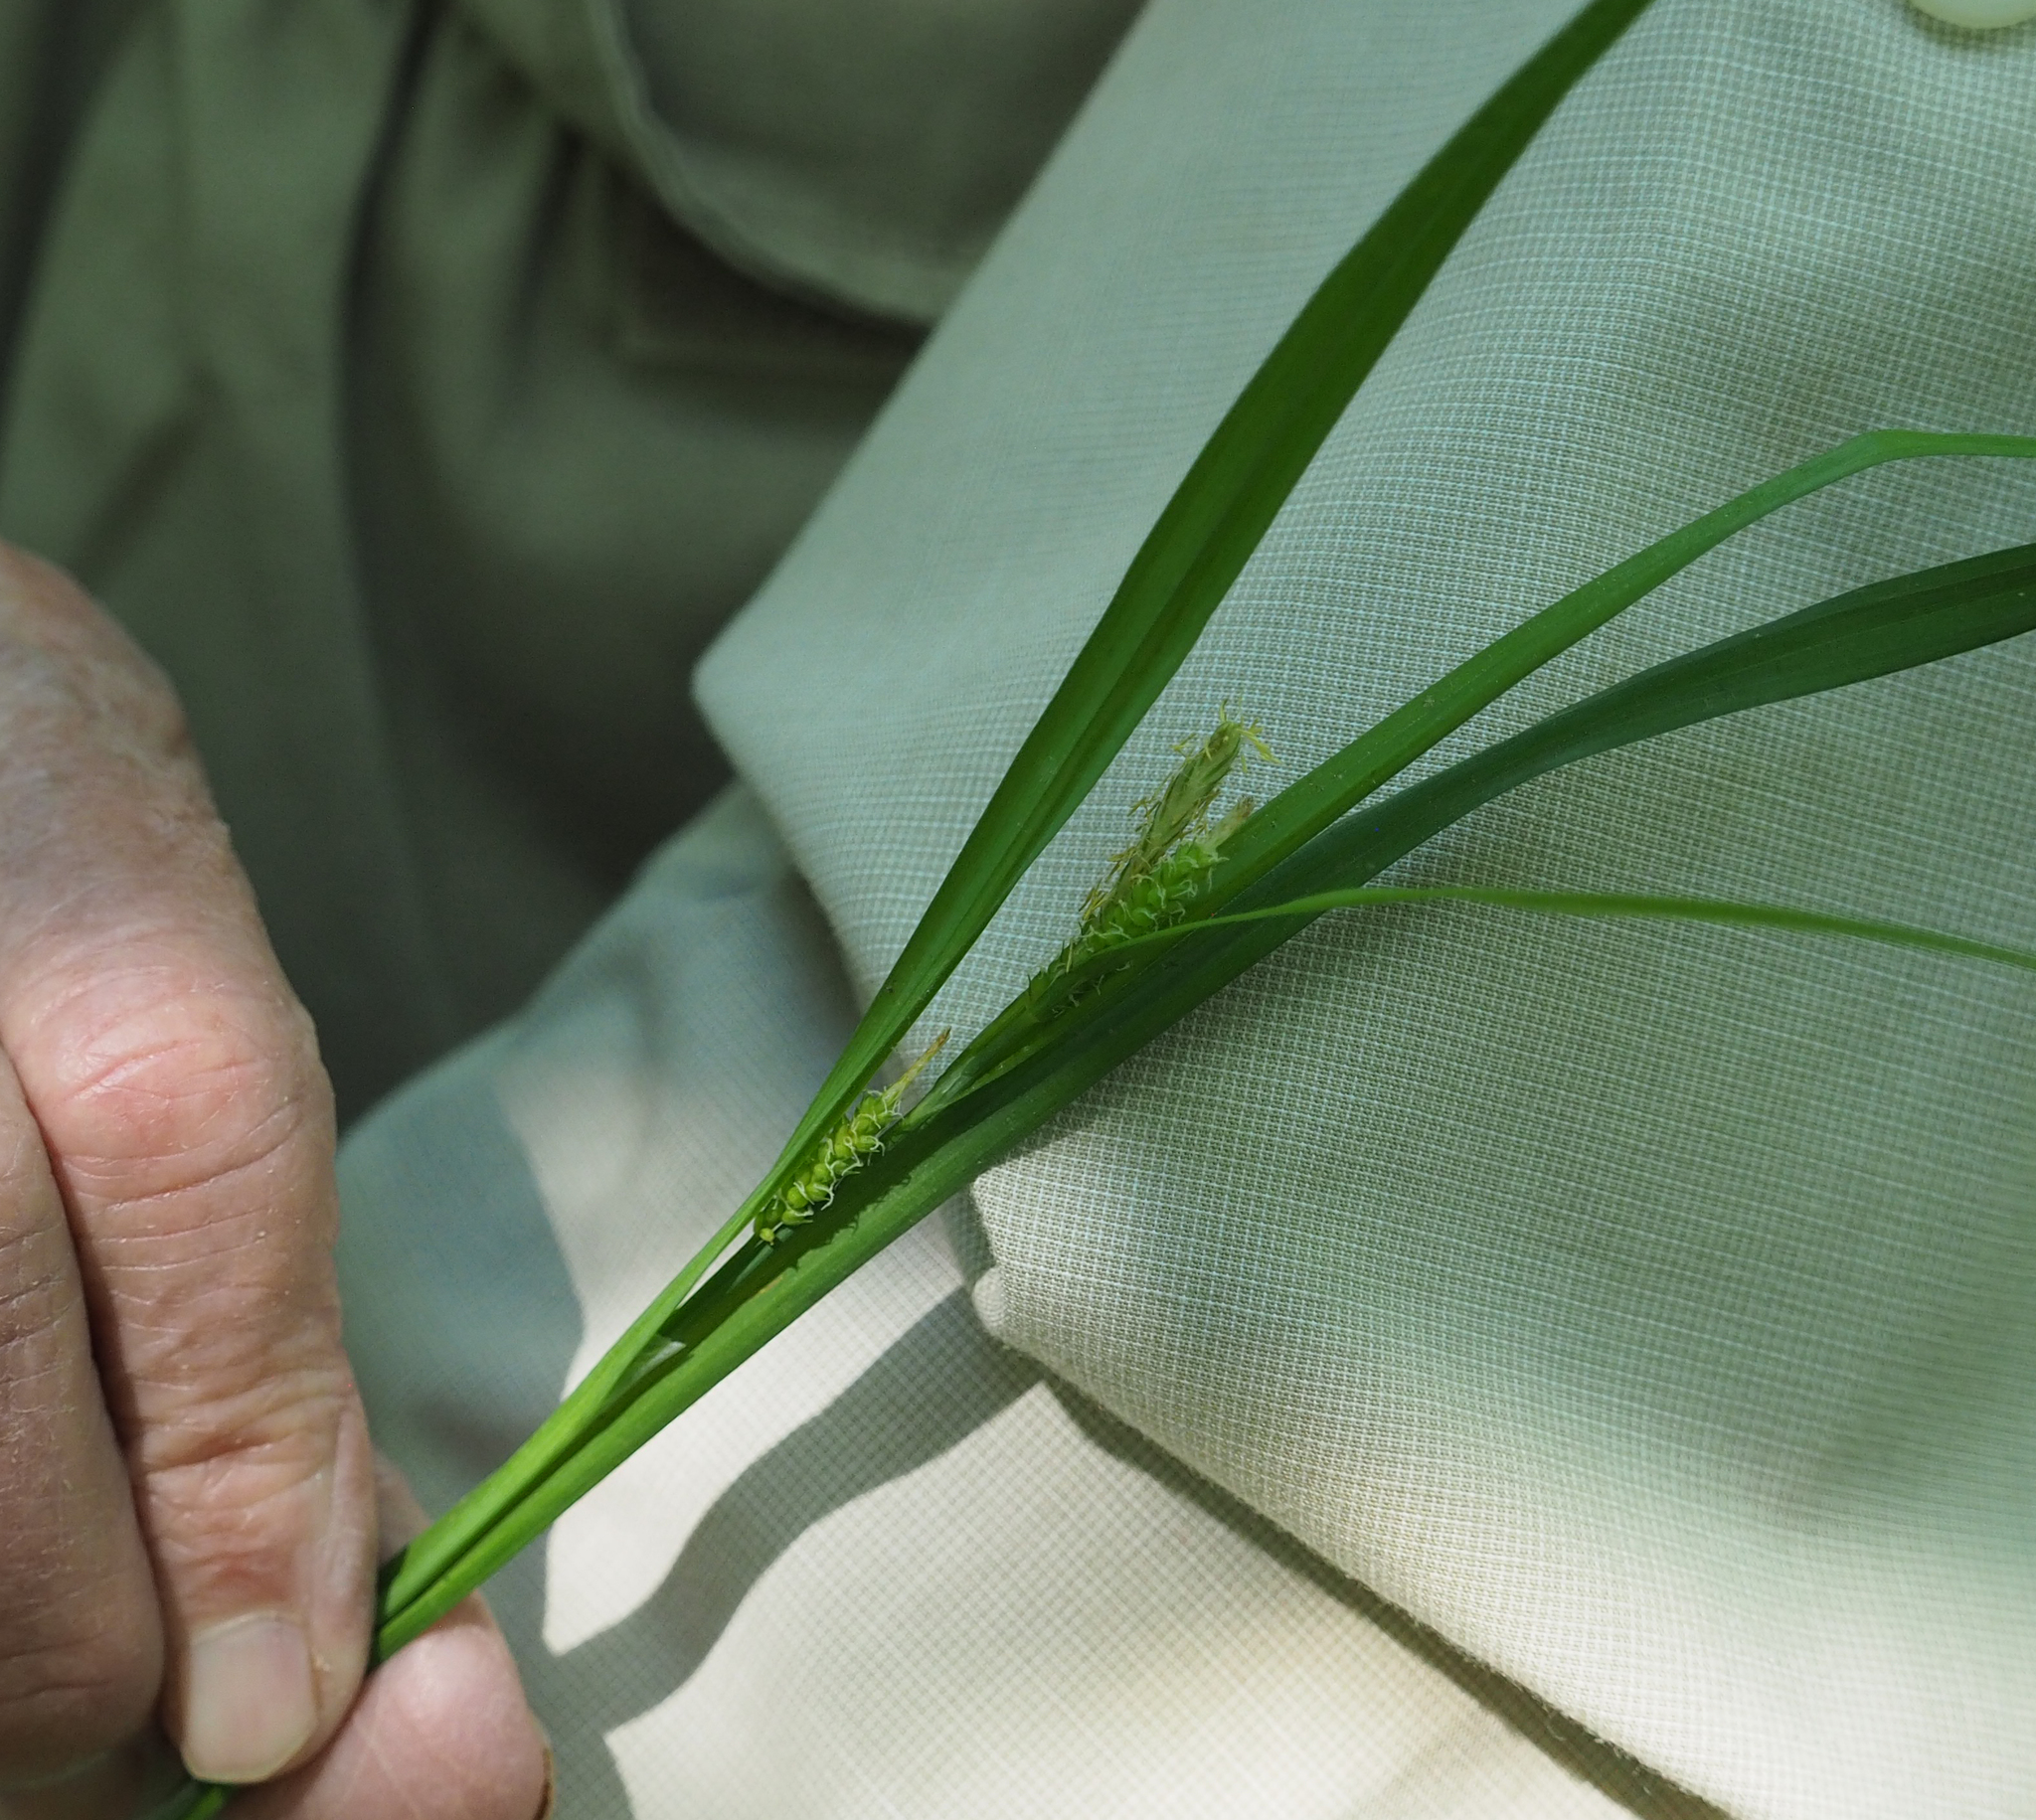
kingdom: Plantae
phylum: Tracheophyta
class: Liliopsida
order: Poales
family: Cyperaceae
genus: Carex
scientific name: Carex blanda
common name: Bland sedge
